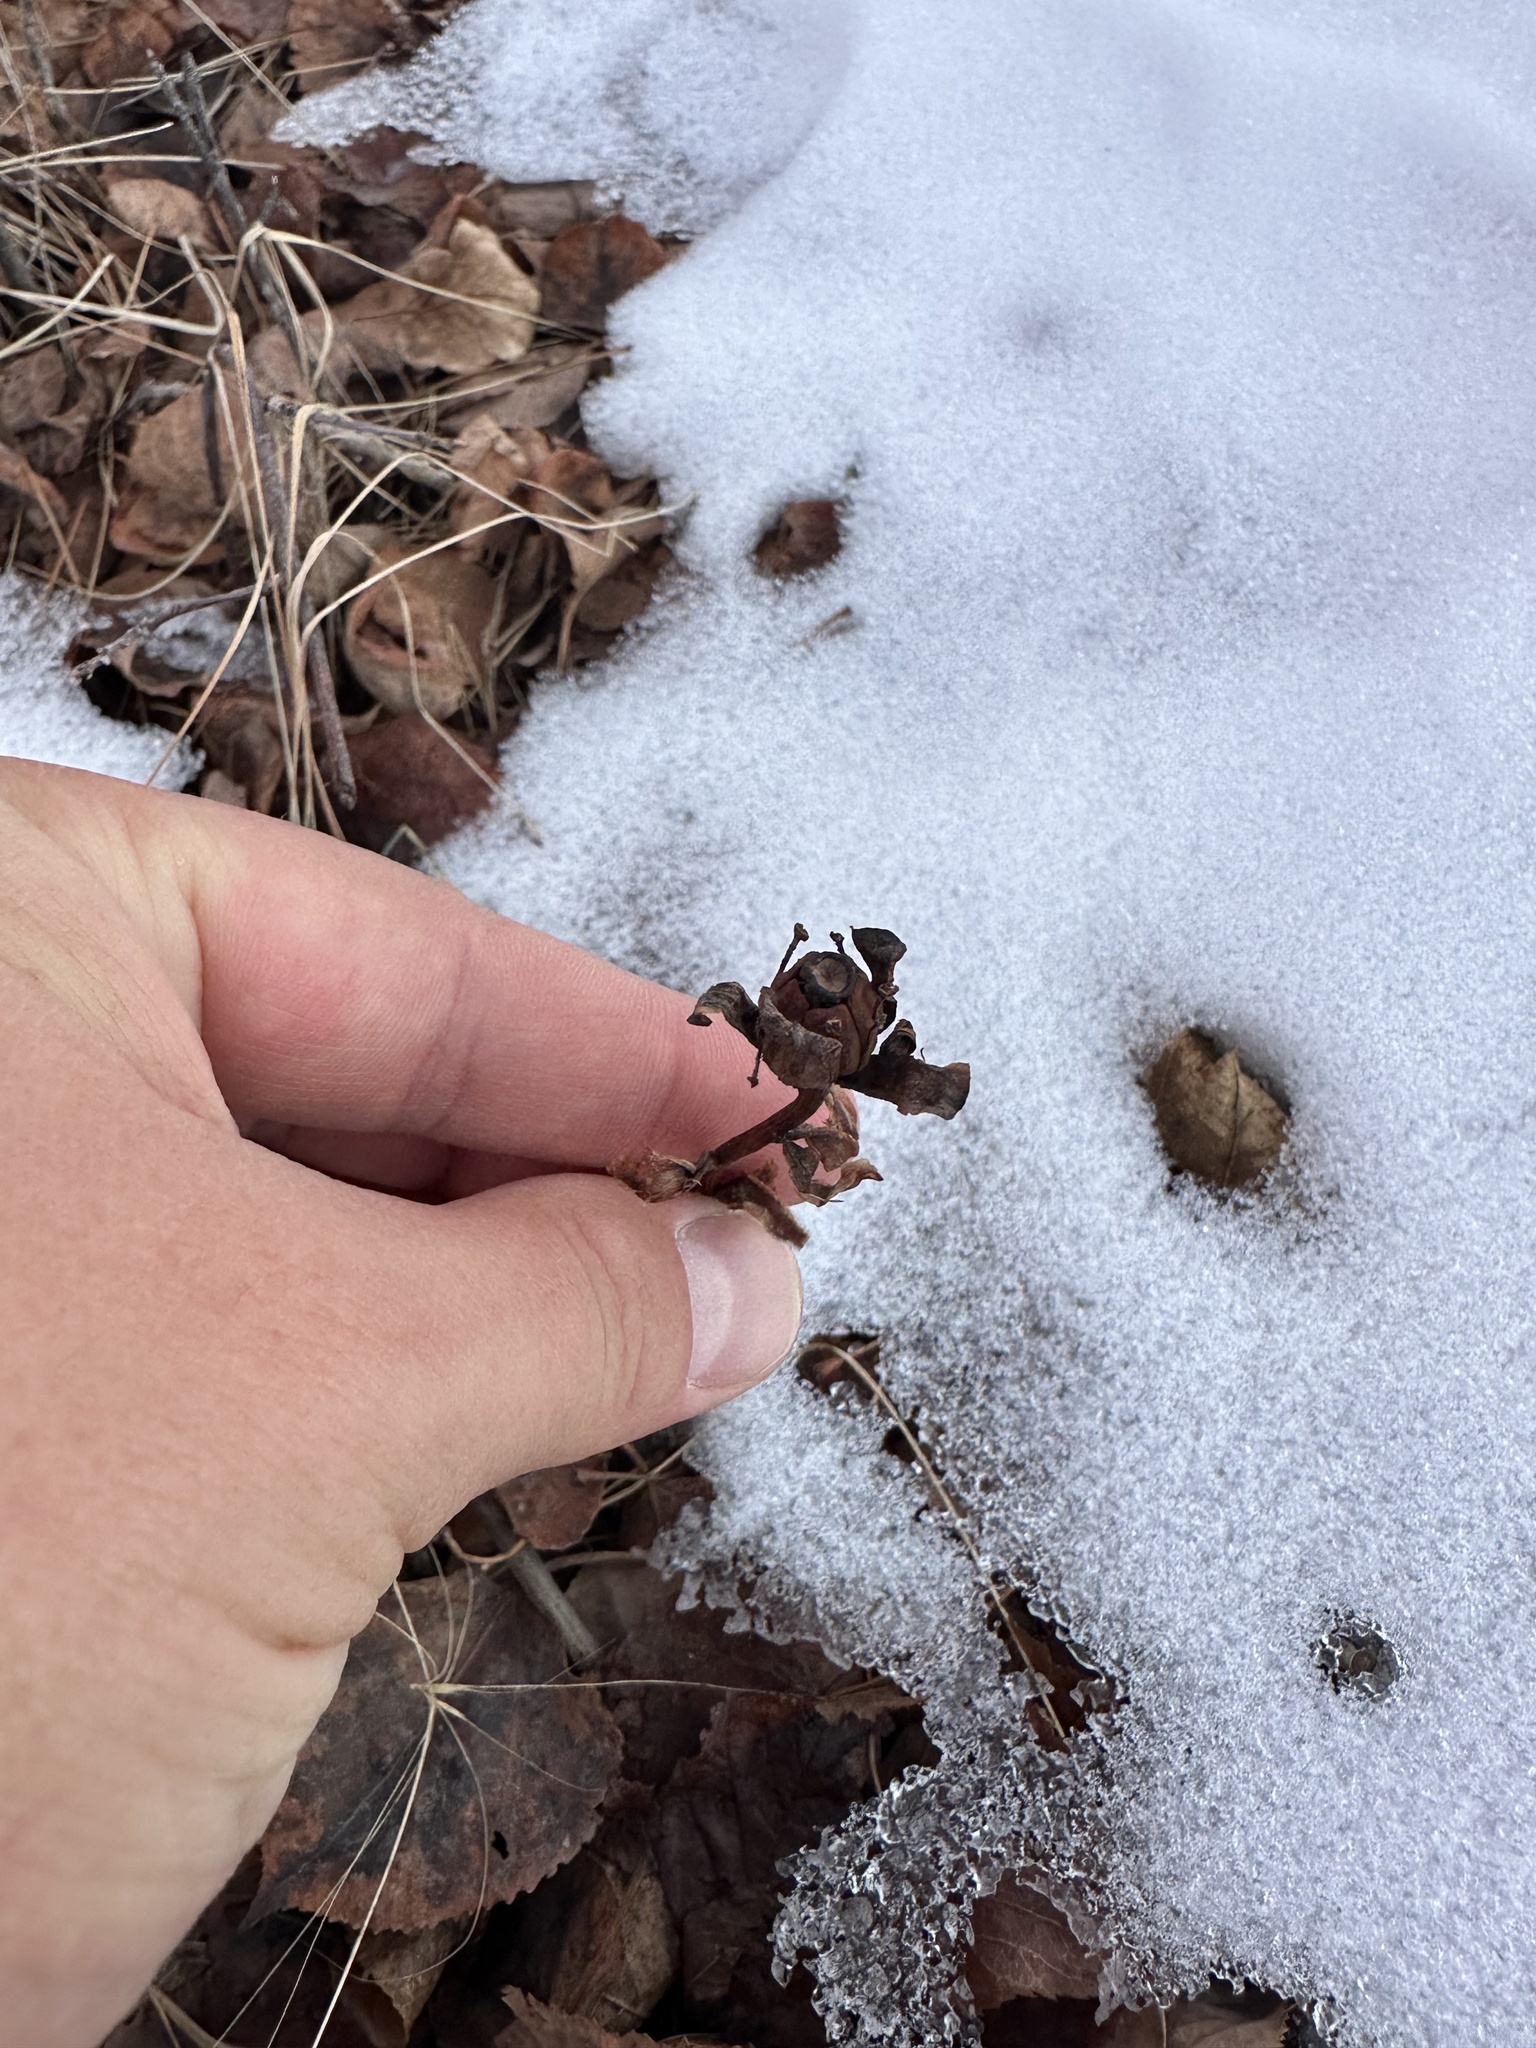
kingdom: Plantae
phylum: Tracheophyta
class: Magnoliopsida
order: Ericales
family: Ericaceae
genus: Monotropa
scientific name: Monotropa uniflora
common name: Convulsion root
